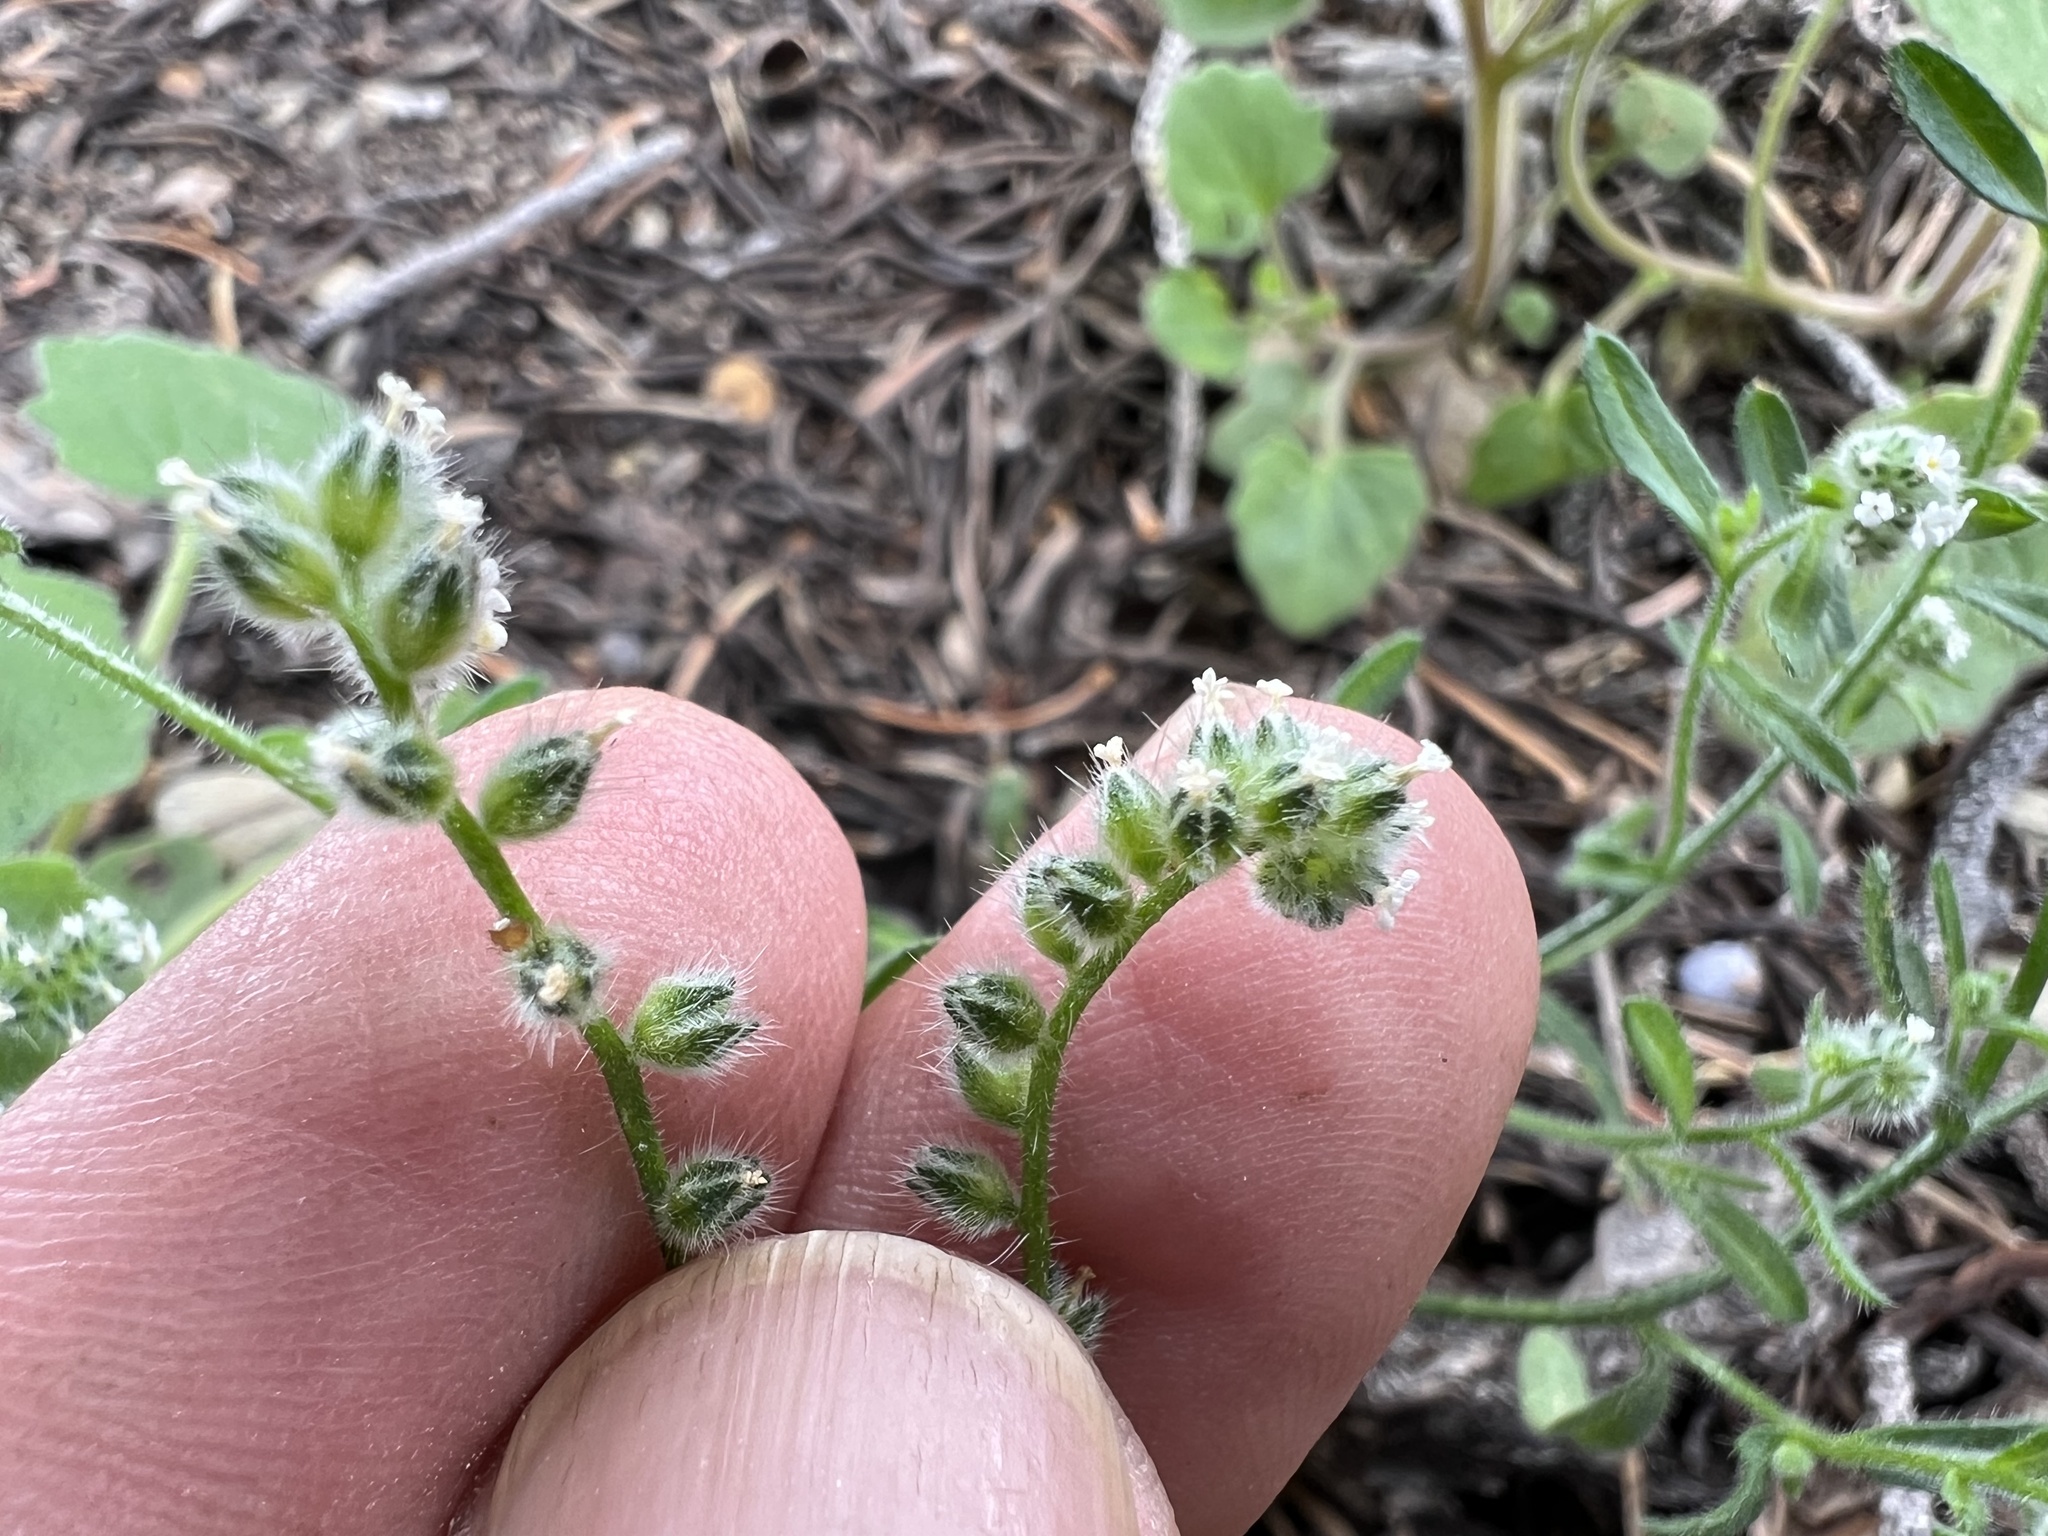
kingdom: Plantae
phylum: Tracheophyta
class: Magnoliopsida
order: Boraginales
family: Boraginaceae
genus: Cryptantha
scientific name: Cryptantha gracilis
